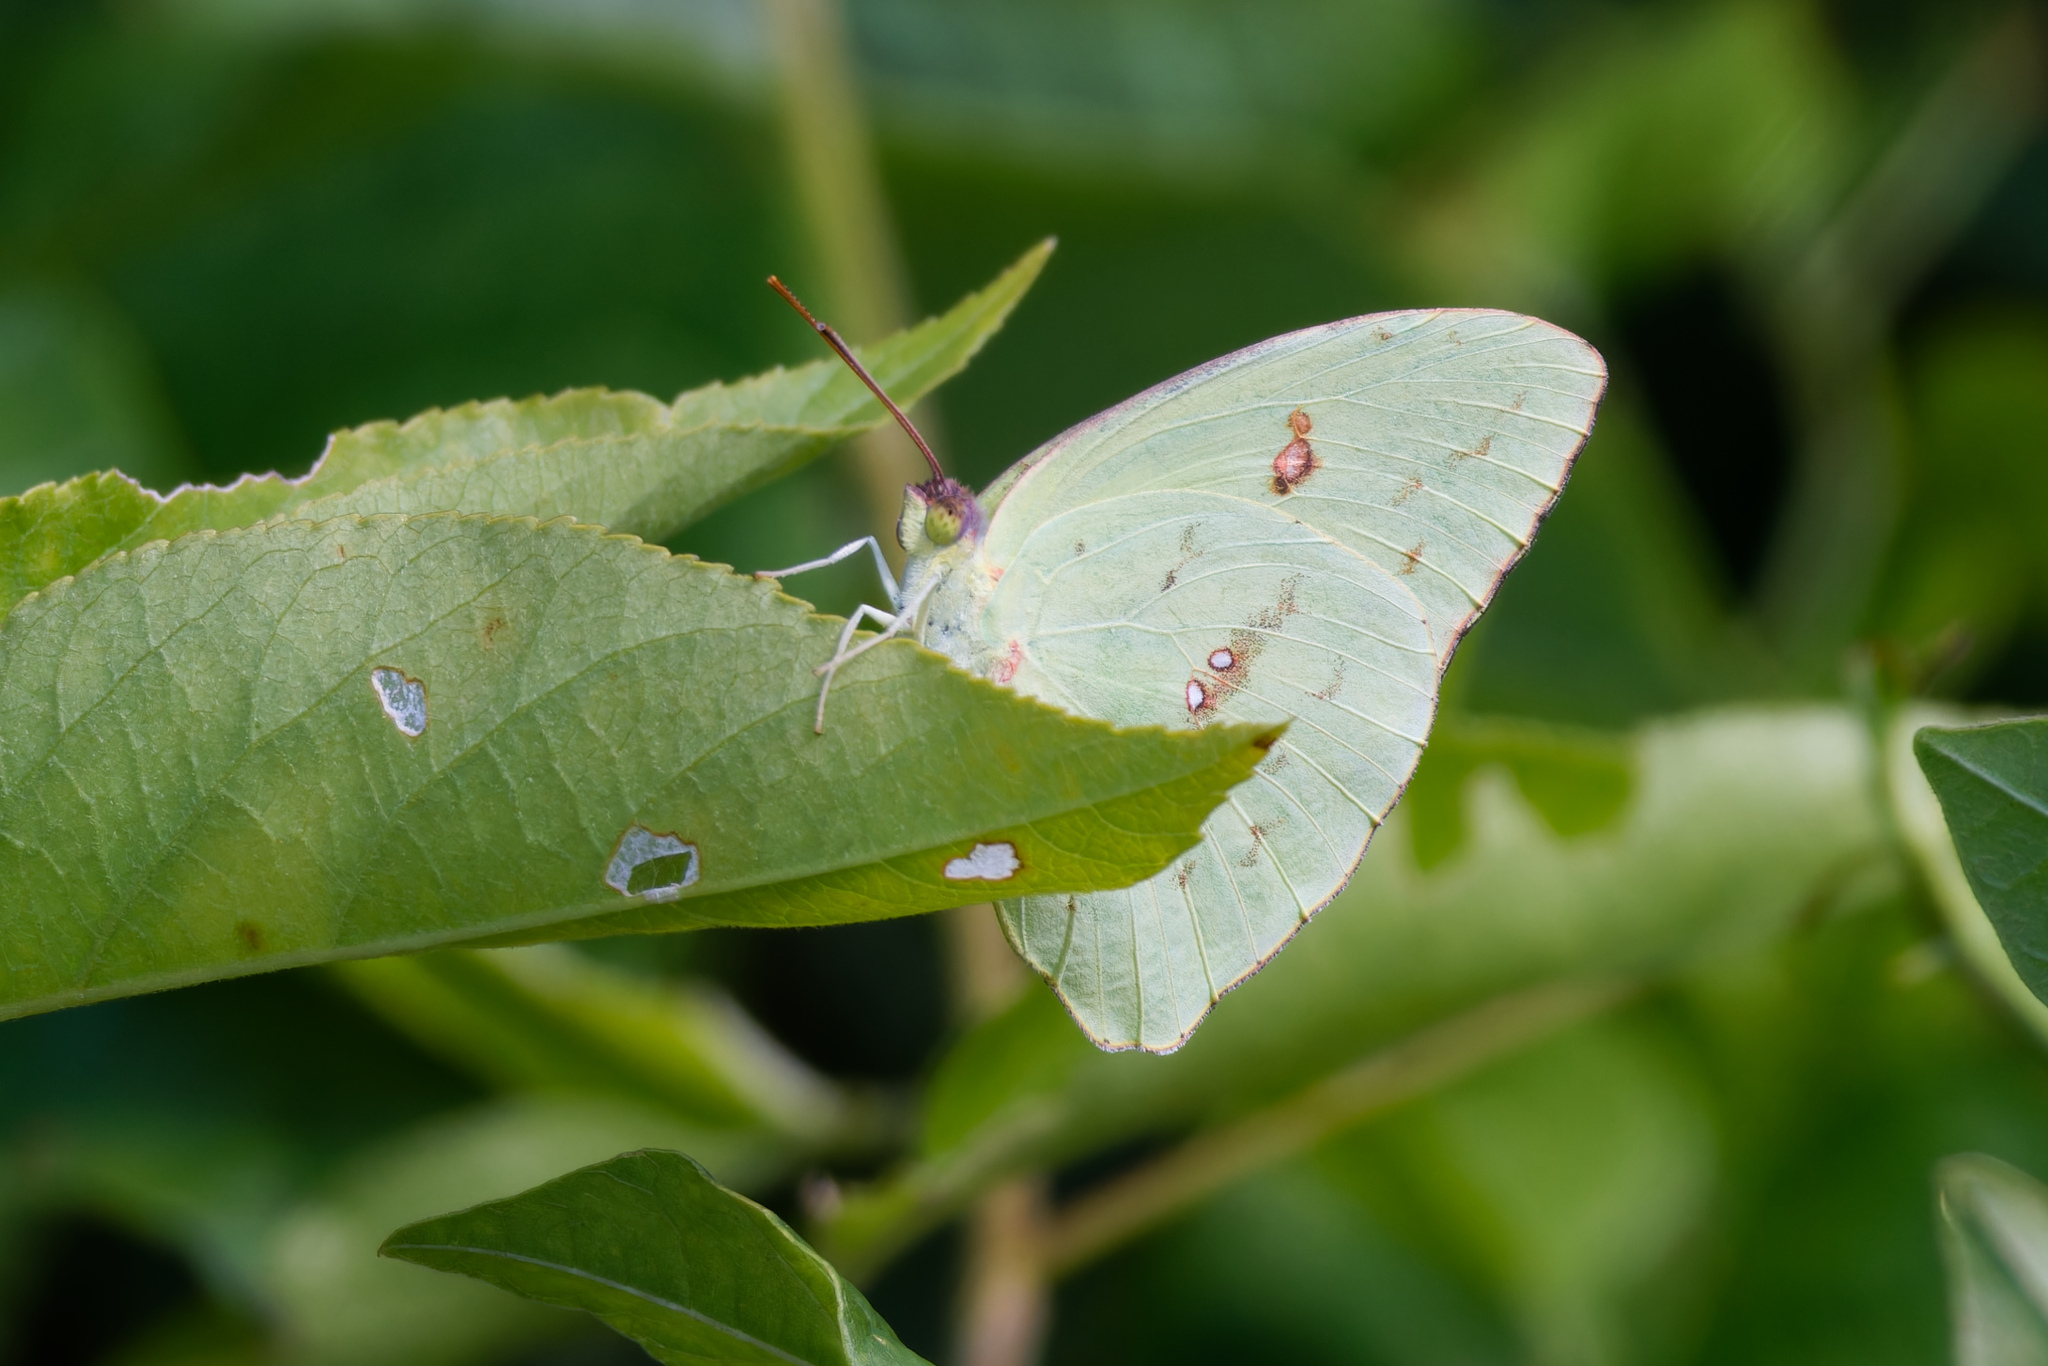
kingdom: Animalia
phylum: Arthropoda
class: Insecta
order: Lepidoptera
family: Pieridae
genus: Phoebis
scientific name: Phoebis sennae
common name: Cloudless sulphur
